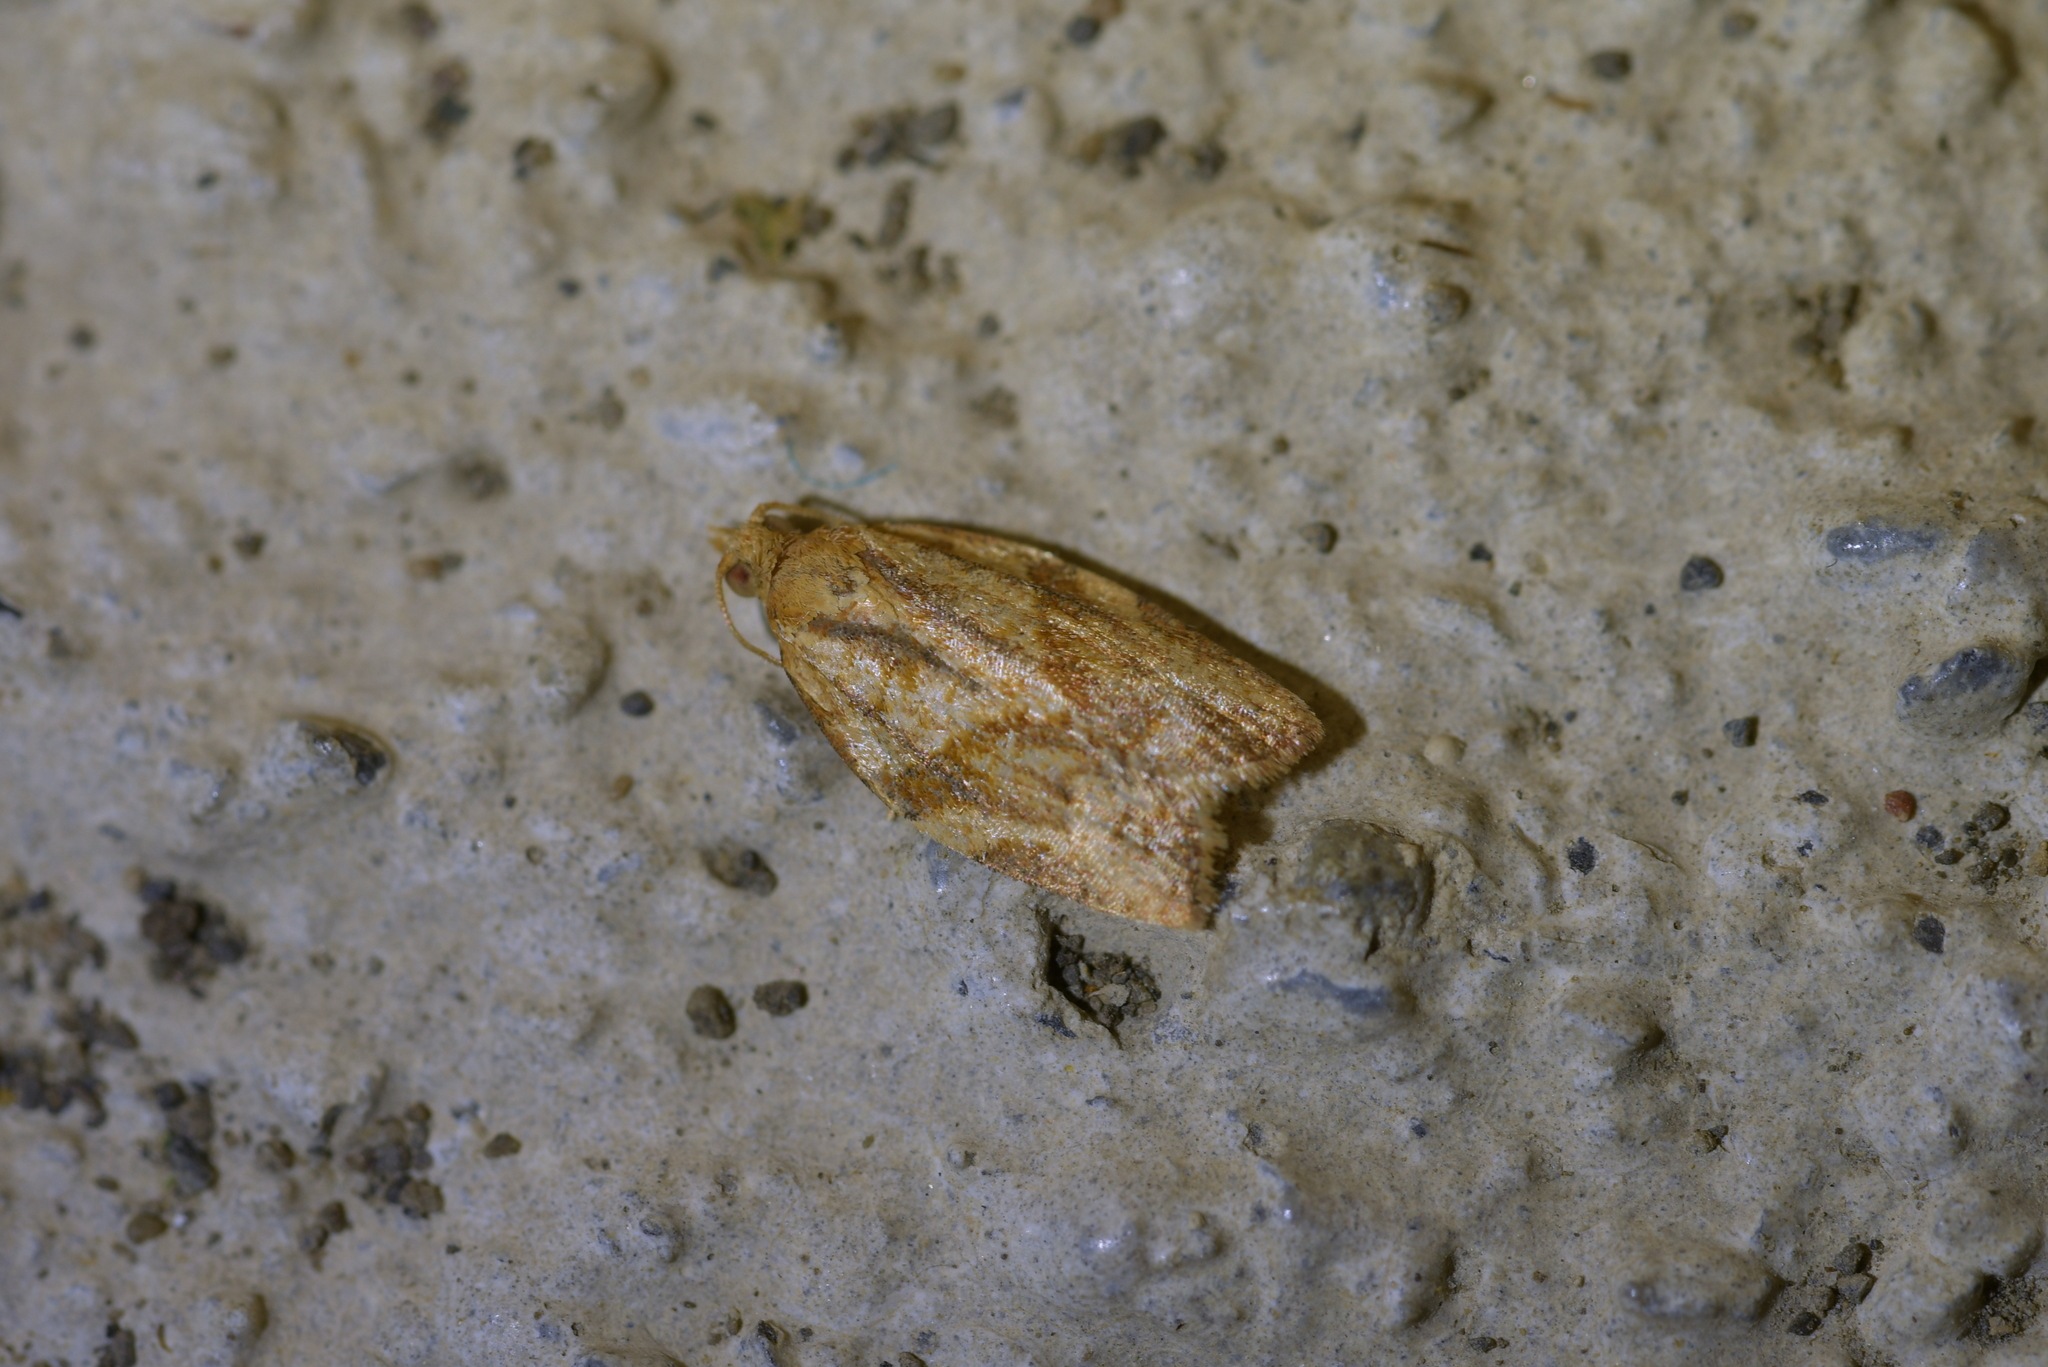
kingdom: Animalia
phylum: Arthropoda
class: Insecta
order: Lepidoptera
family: Tortricidae
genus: Epiphyas
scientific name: Epiphyas postvittana
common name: Light brown apple moth
